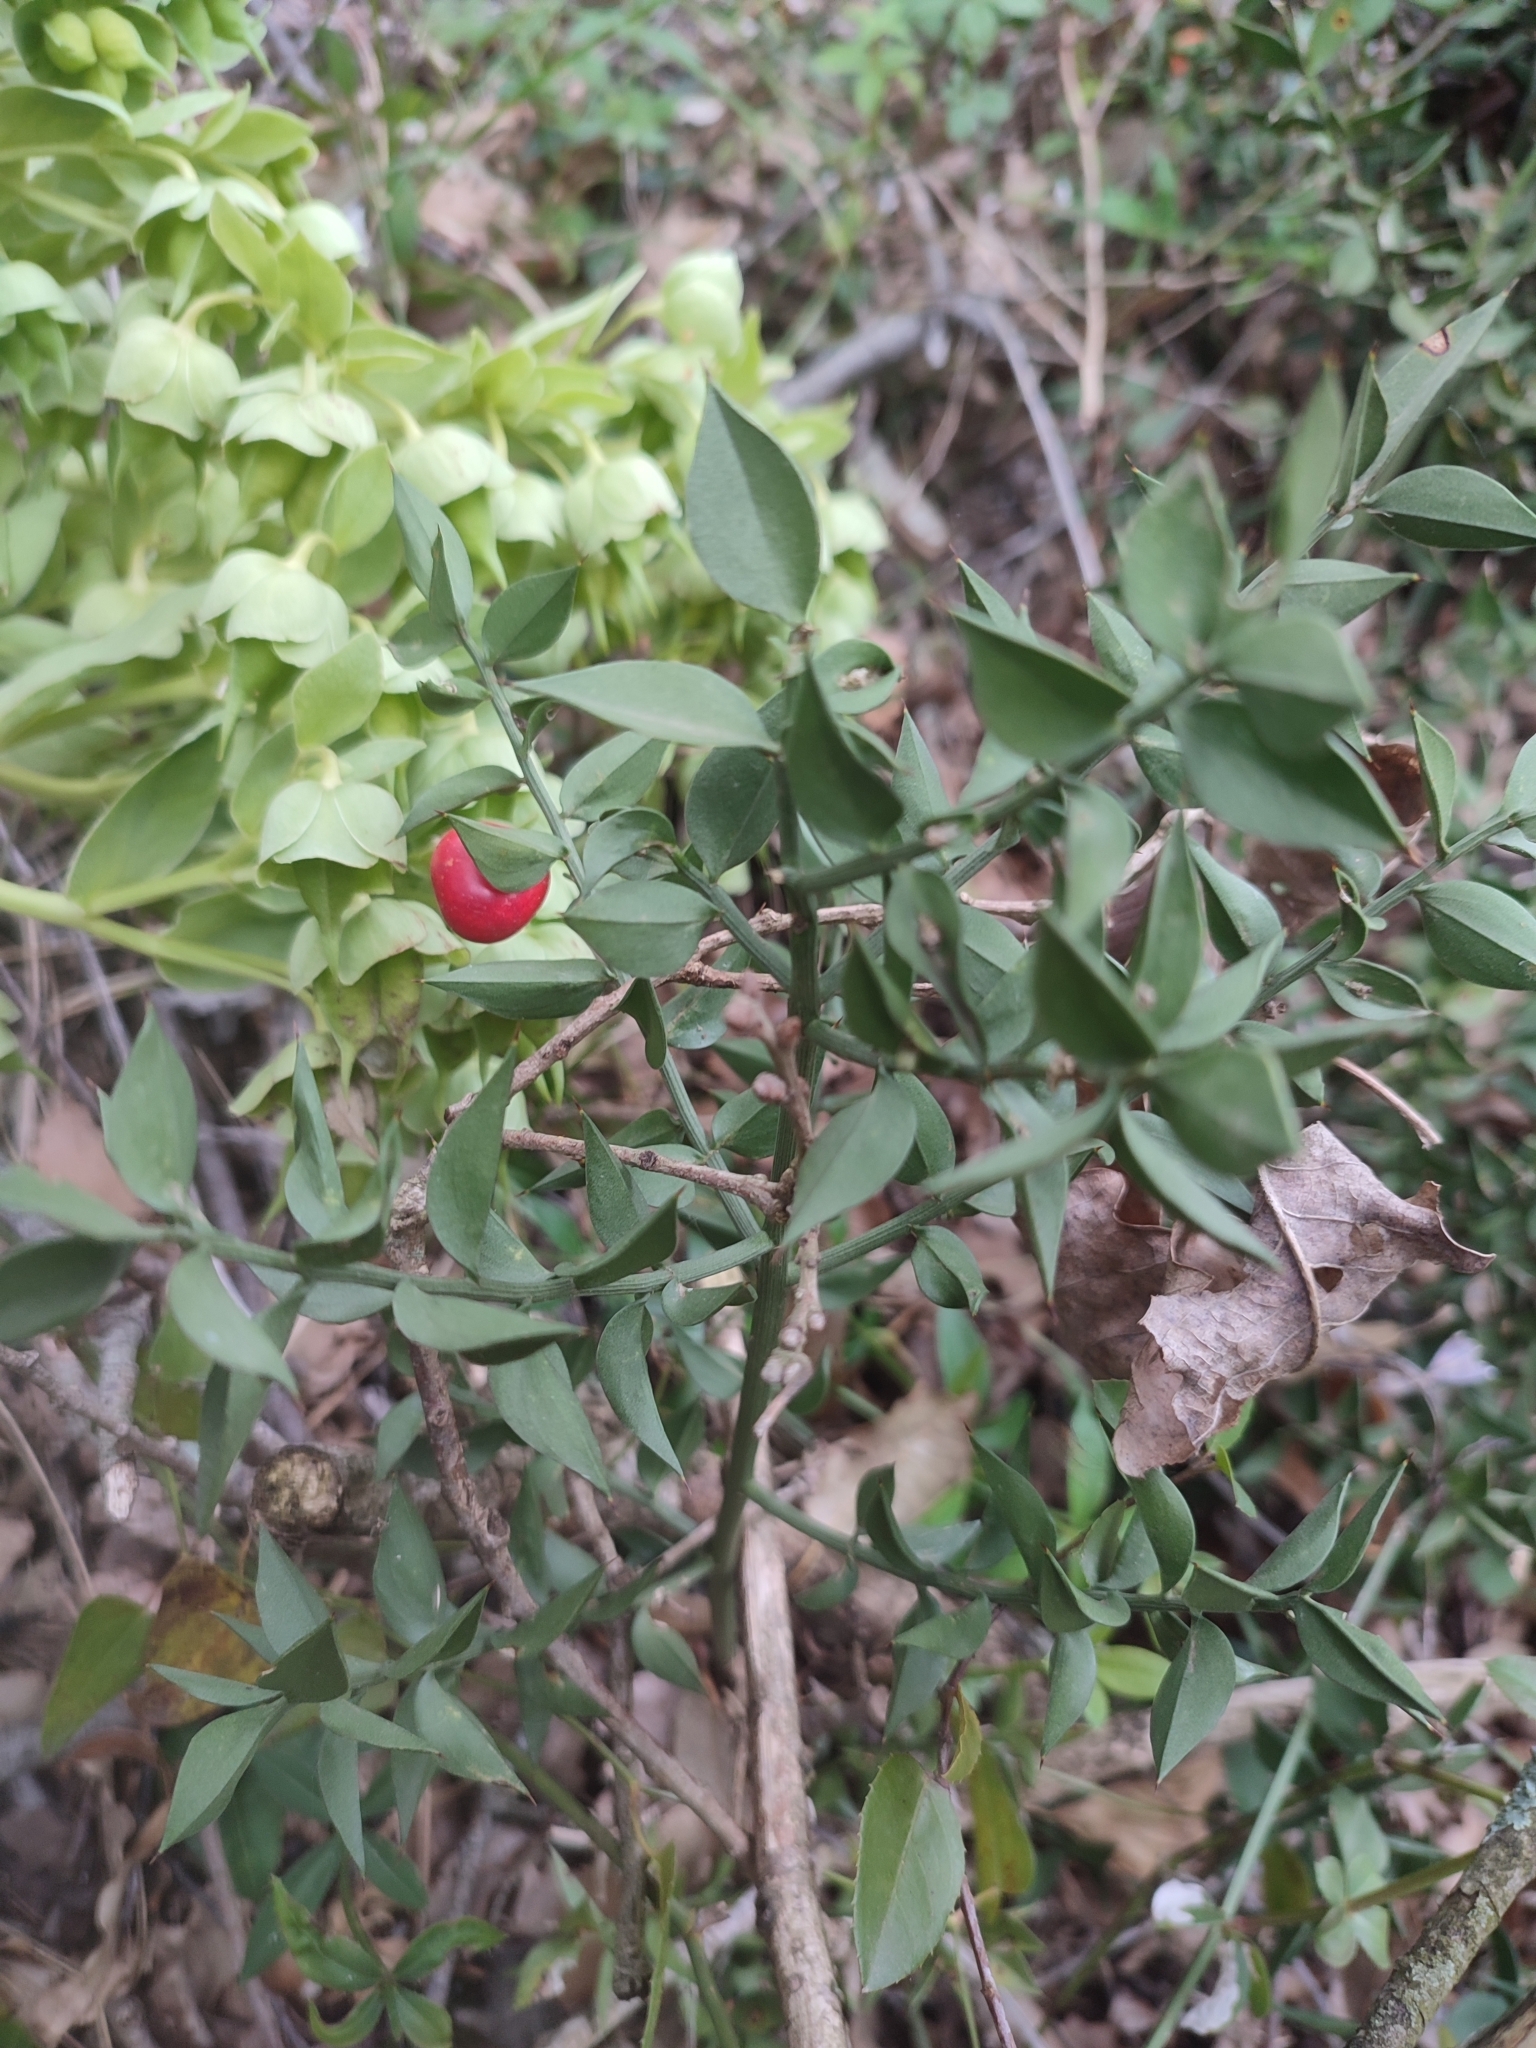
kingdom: Plantae
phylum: Tracheophyta
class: Liliopsida
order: Asparagales
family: Asparagaceae
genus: Ruscus
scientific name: Ruscus aculeatus
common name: Butcher's-broom
